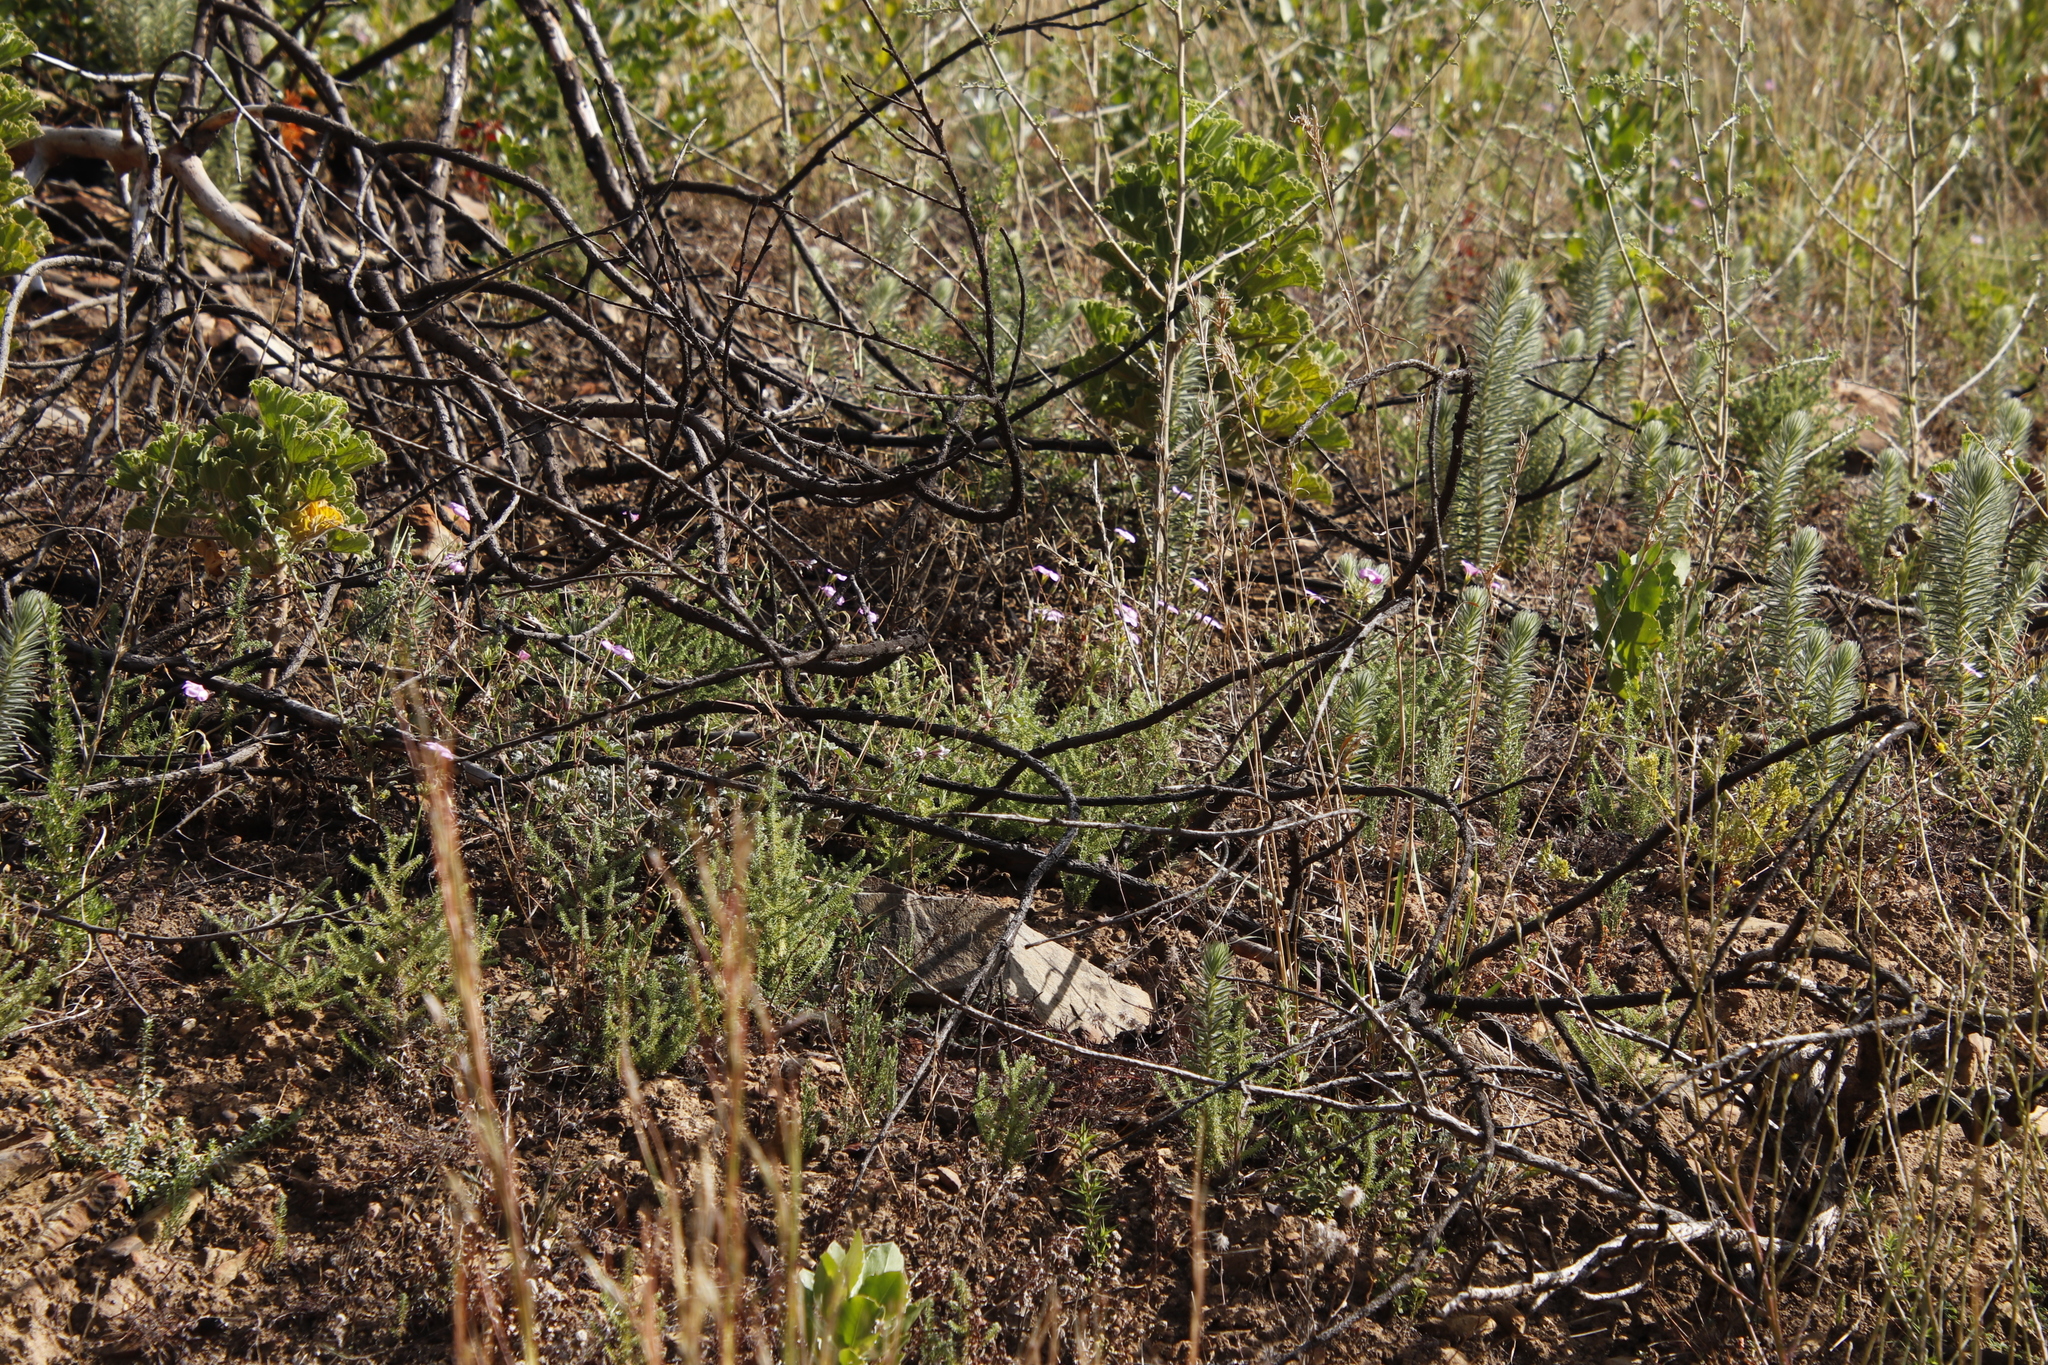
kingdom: Plantae
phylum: Tracheophyta
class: Magnoliopsida
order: Oxalidales
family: Oxalidaceae
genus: Oxalis
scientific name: Oxalis bifida
